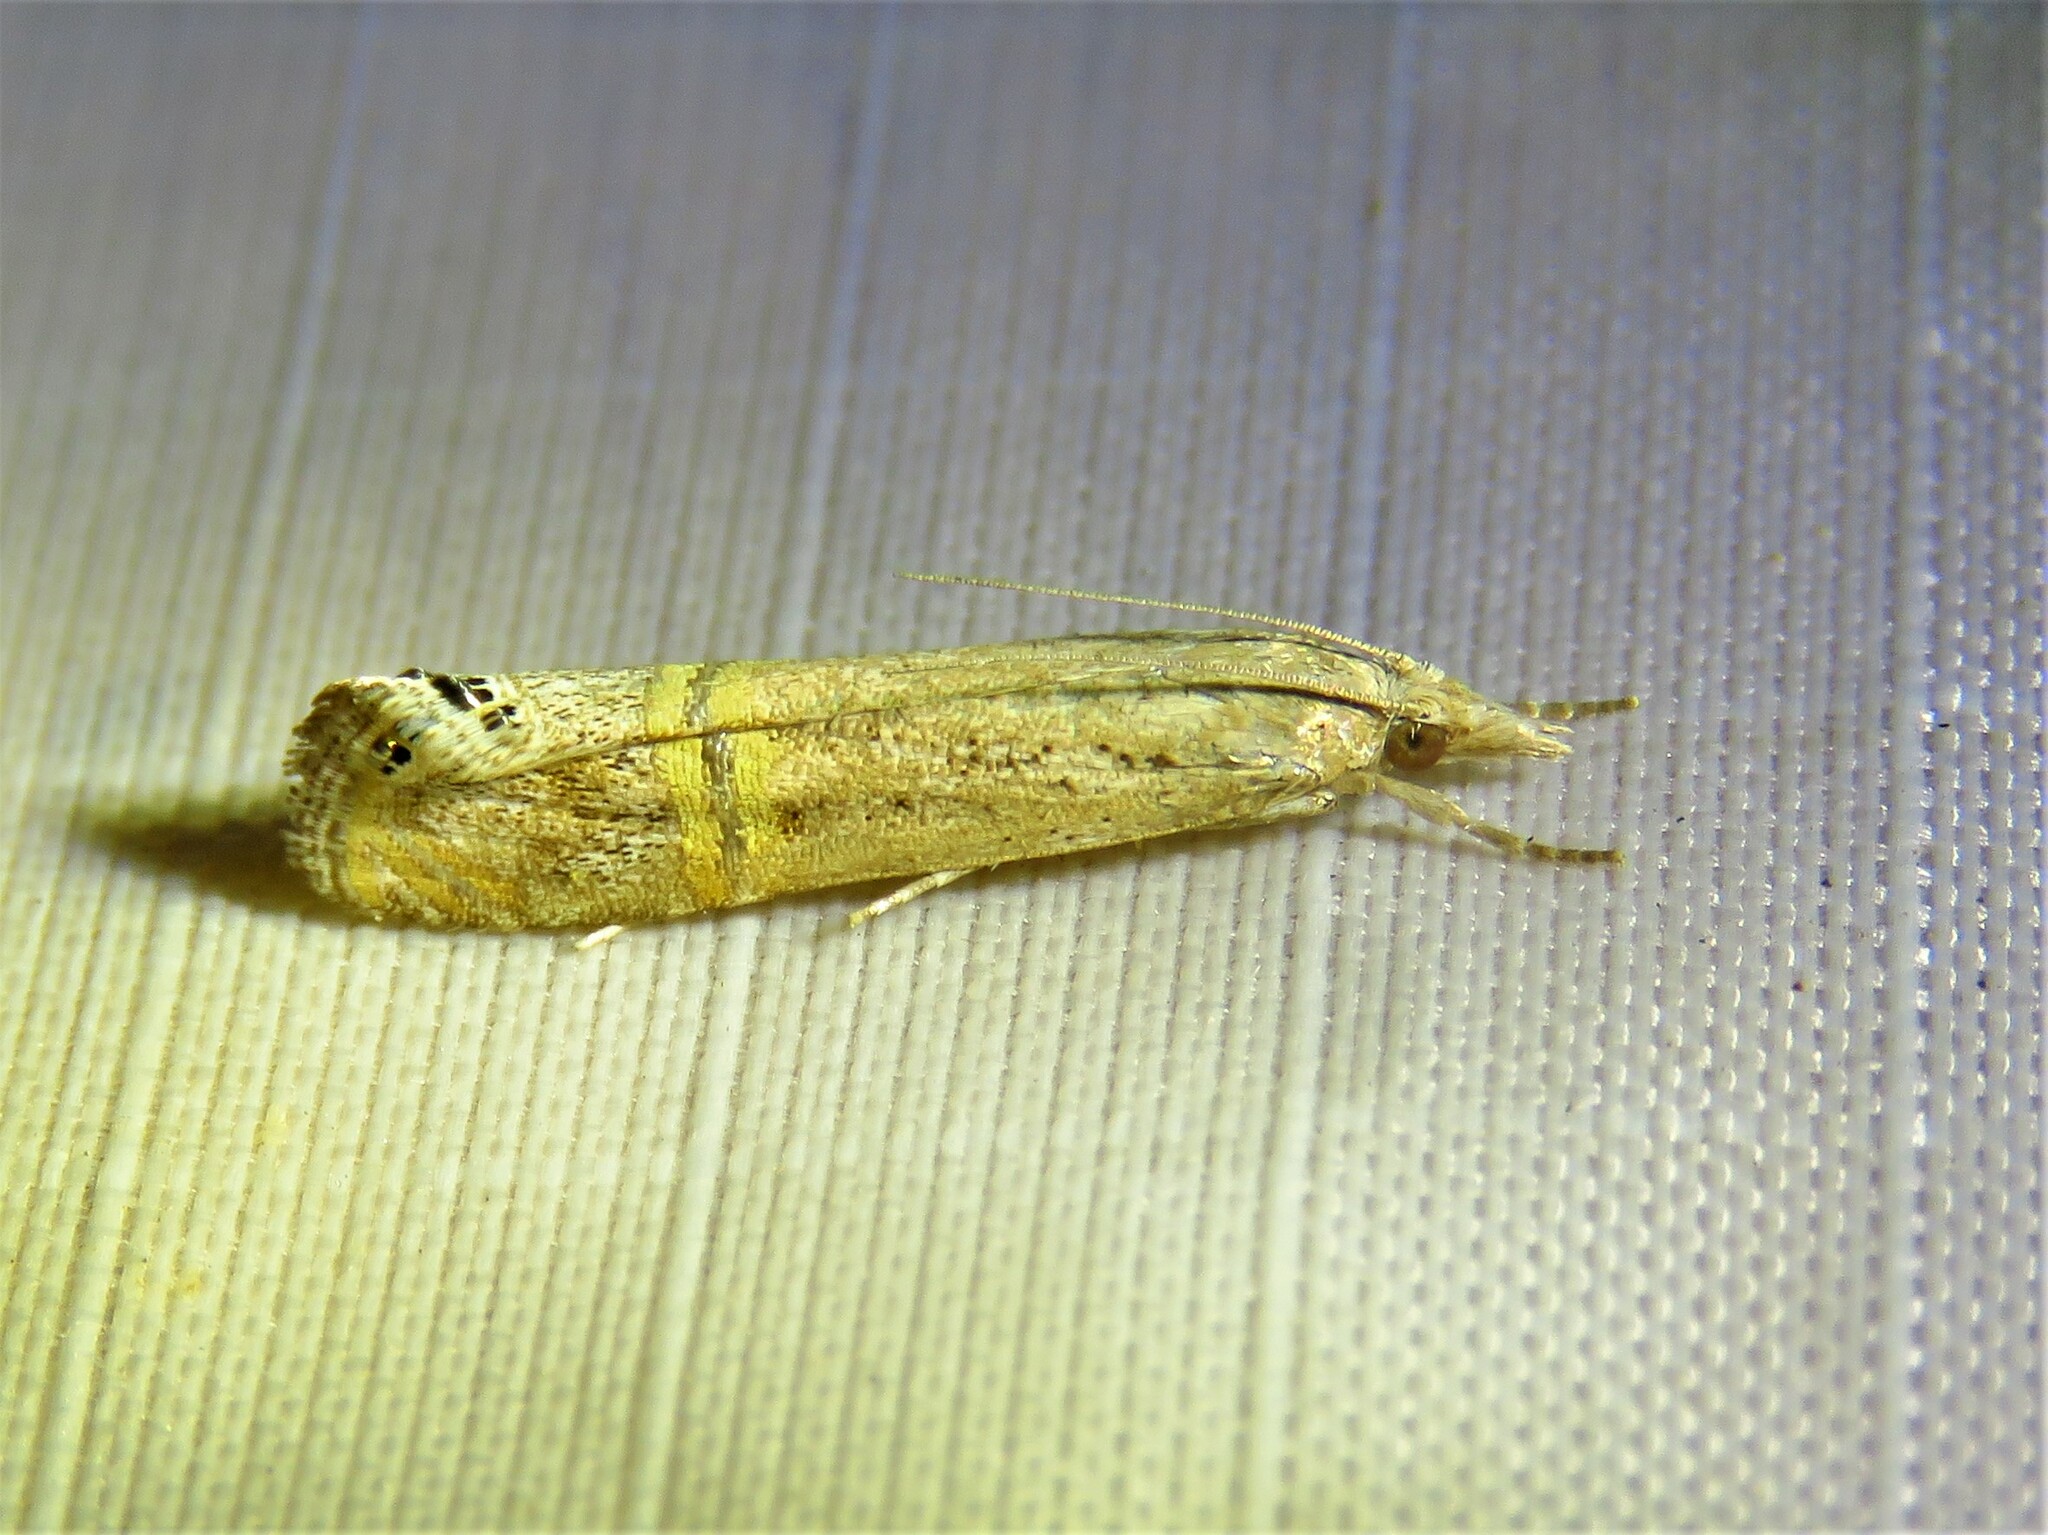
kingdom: Animalia
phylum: Arthropoda
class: Insecta
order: Lepidoptera
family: Crambidae
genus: Euchromius
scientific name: Euchromius ocellea
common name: Necklace veneer moth
